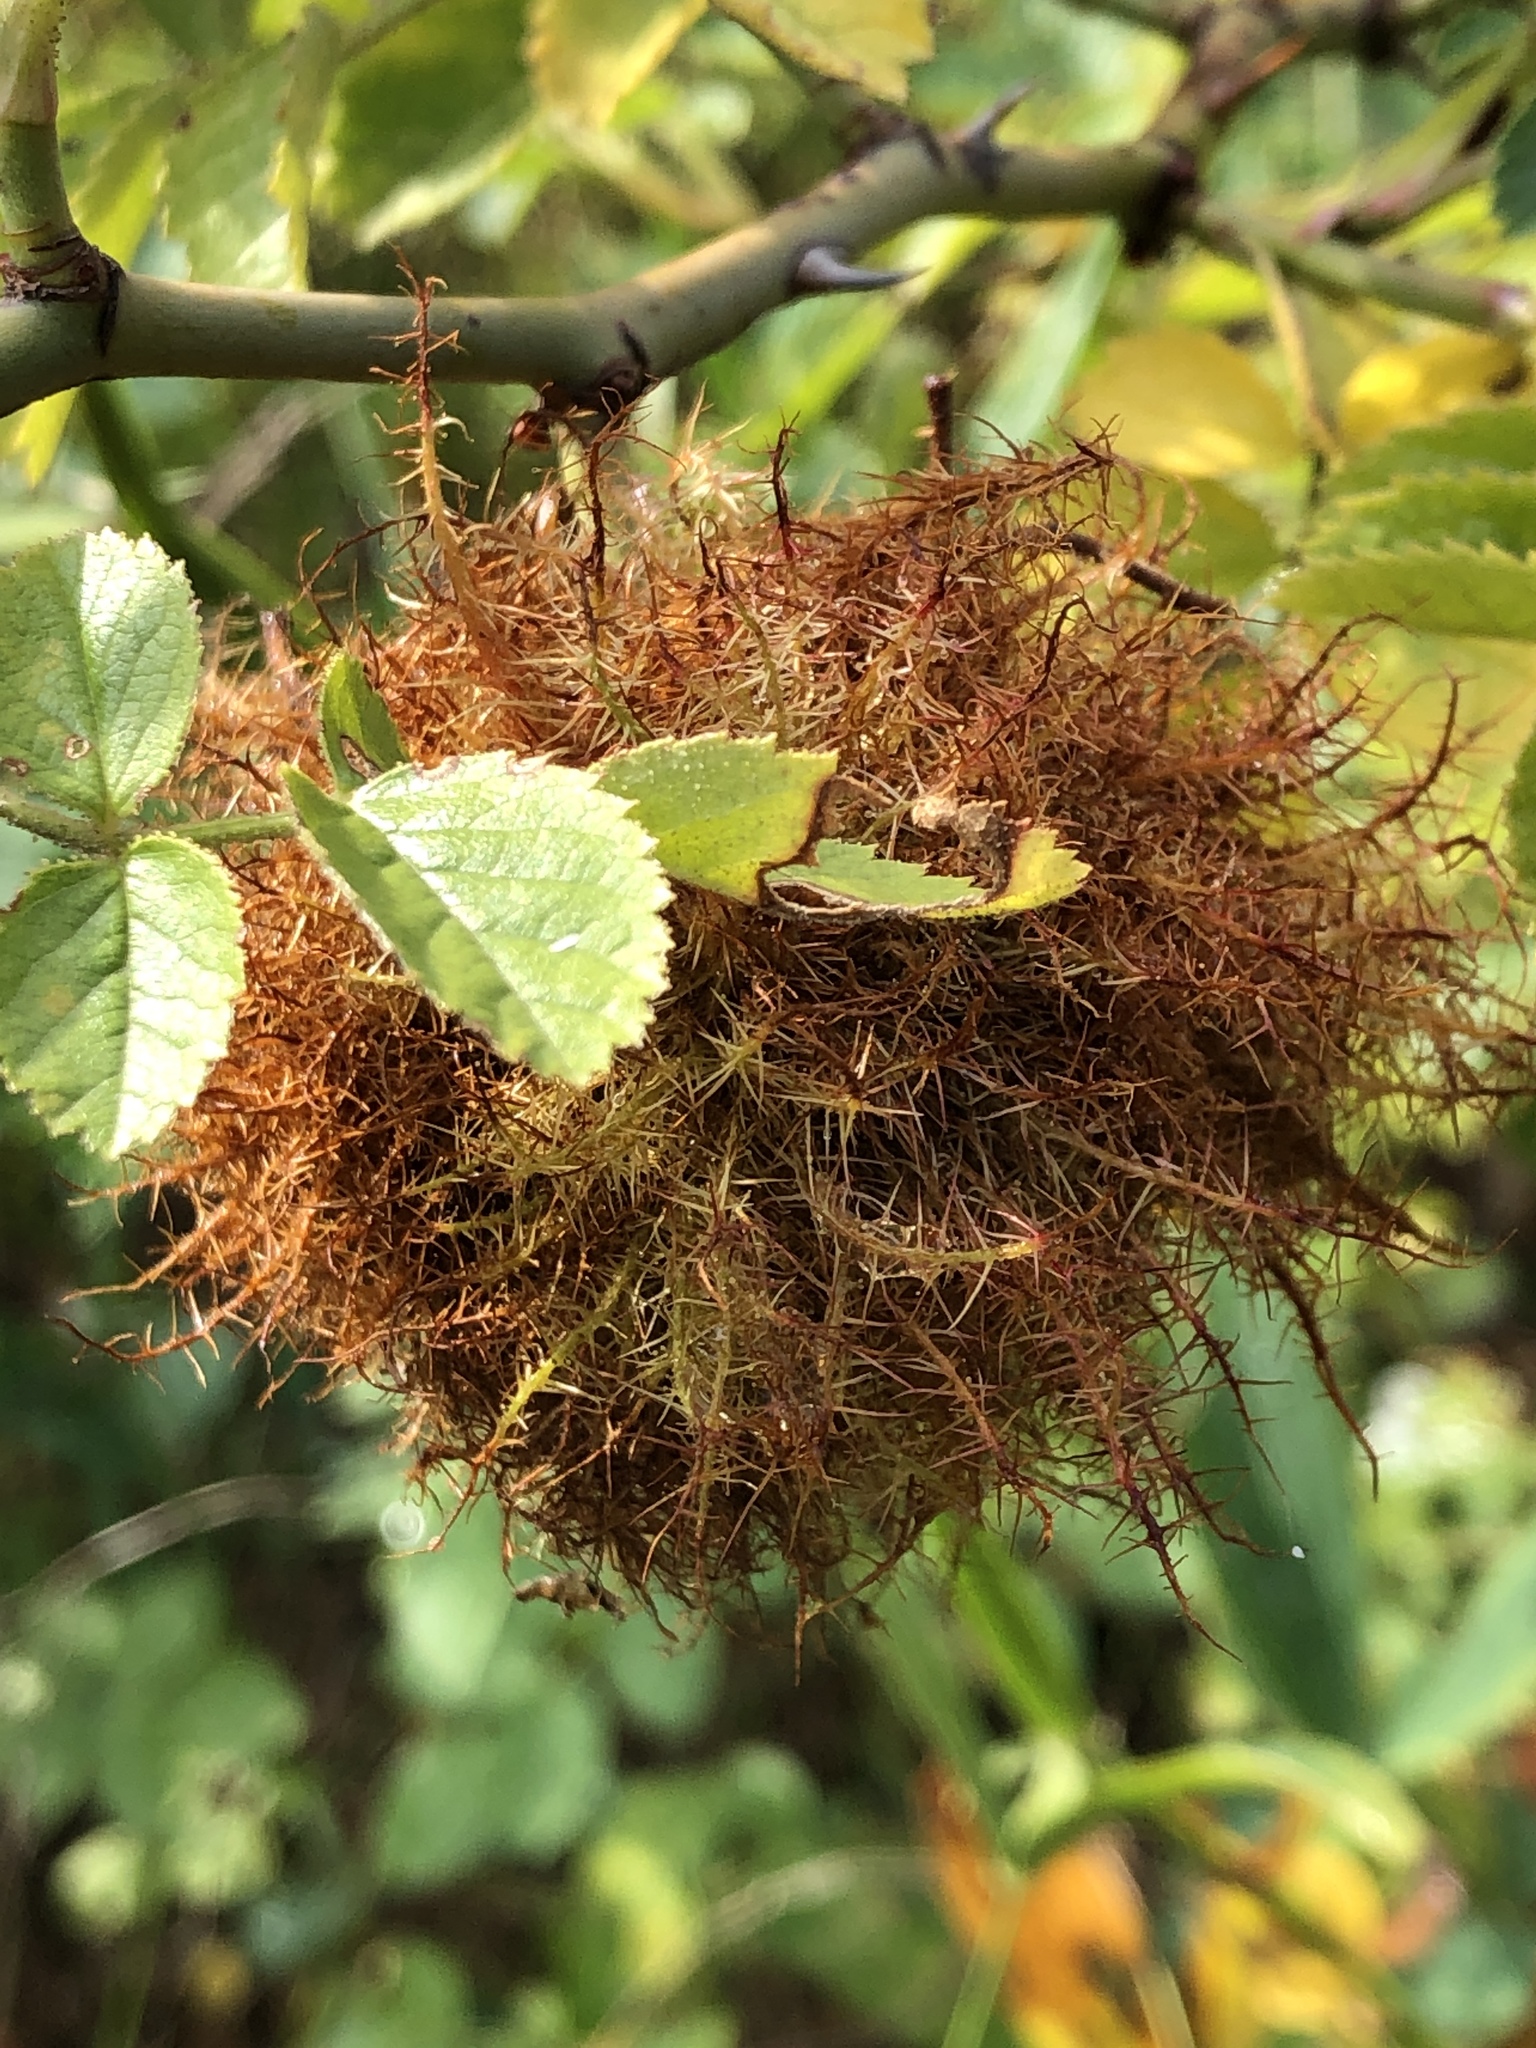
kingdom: Animalia
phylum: Arthropoda
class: Insecta
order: Hymenoptera
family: Cynipidae
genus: Diplolepis
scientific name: Diplolepis rosae
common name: Bedeguar gall
